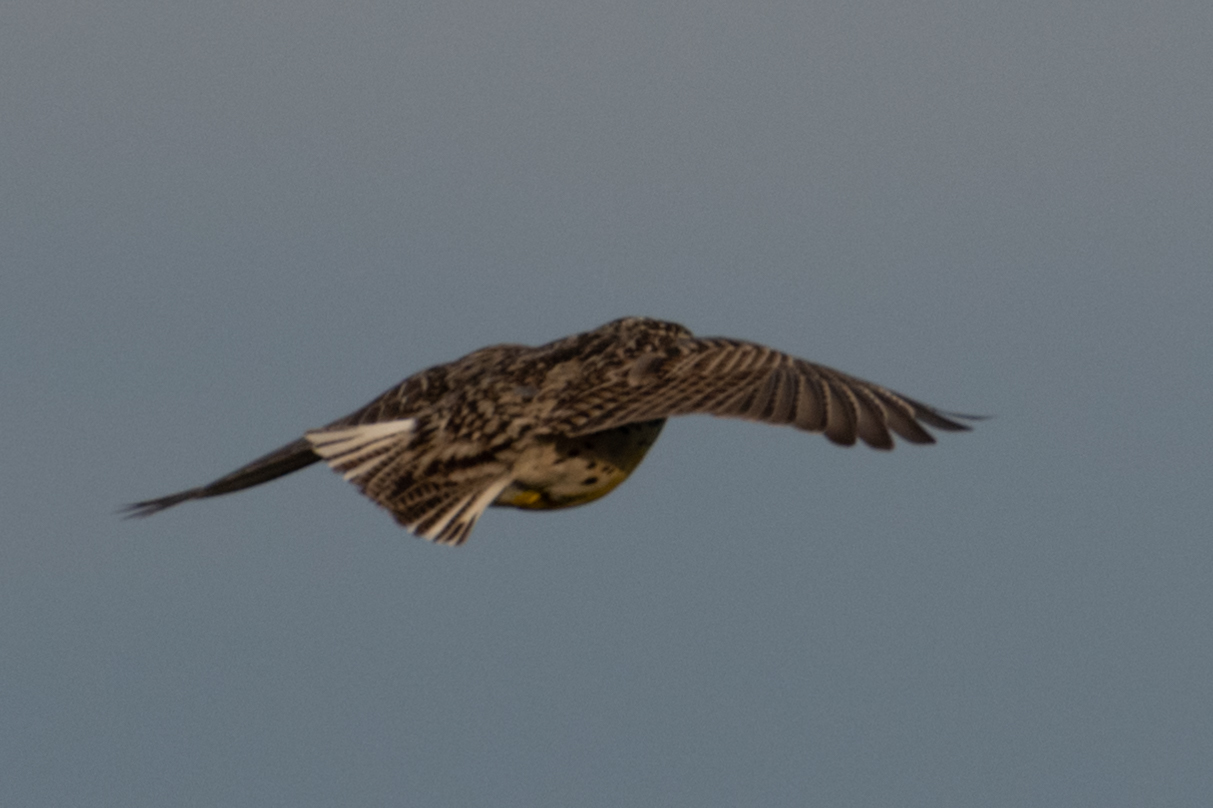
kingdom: Animalia
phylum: Chordata
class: Aves
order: Passeriformes
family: Icteridae
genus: Sturnella
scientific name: Sturnella neglecta
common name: Western meadowlark
